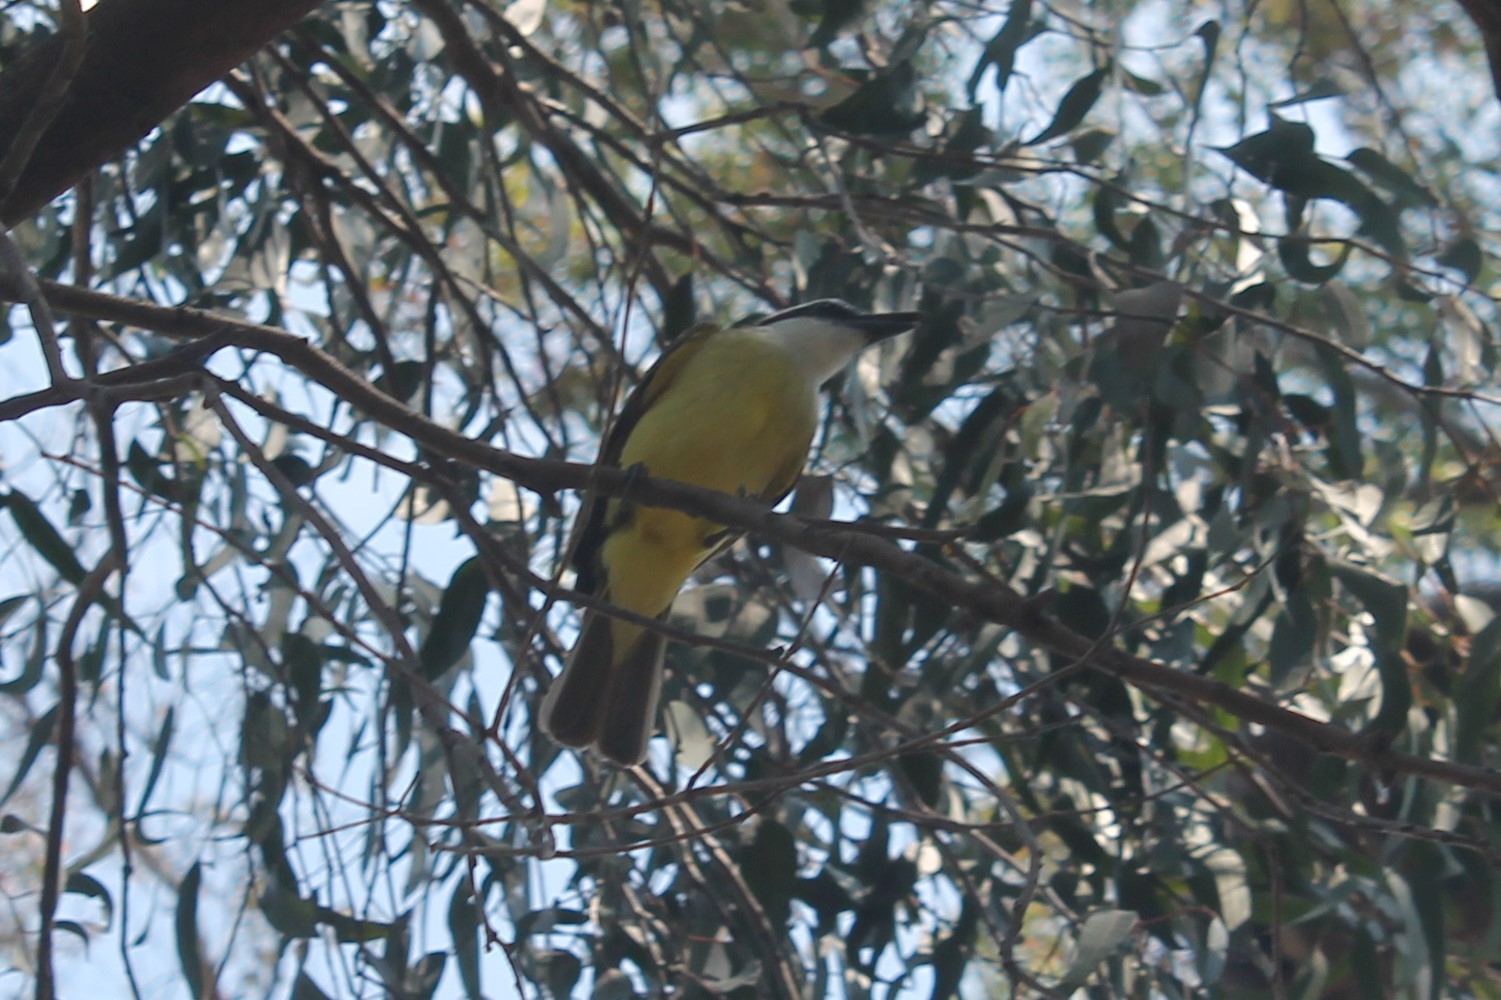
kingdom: Animalia
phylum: Chordata
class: Aves
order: Passeriformes
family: Tyrannidae
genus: Pitangus
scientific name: Pitangus sulphuratus
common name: Great kiskadee
